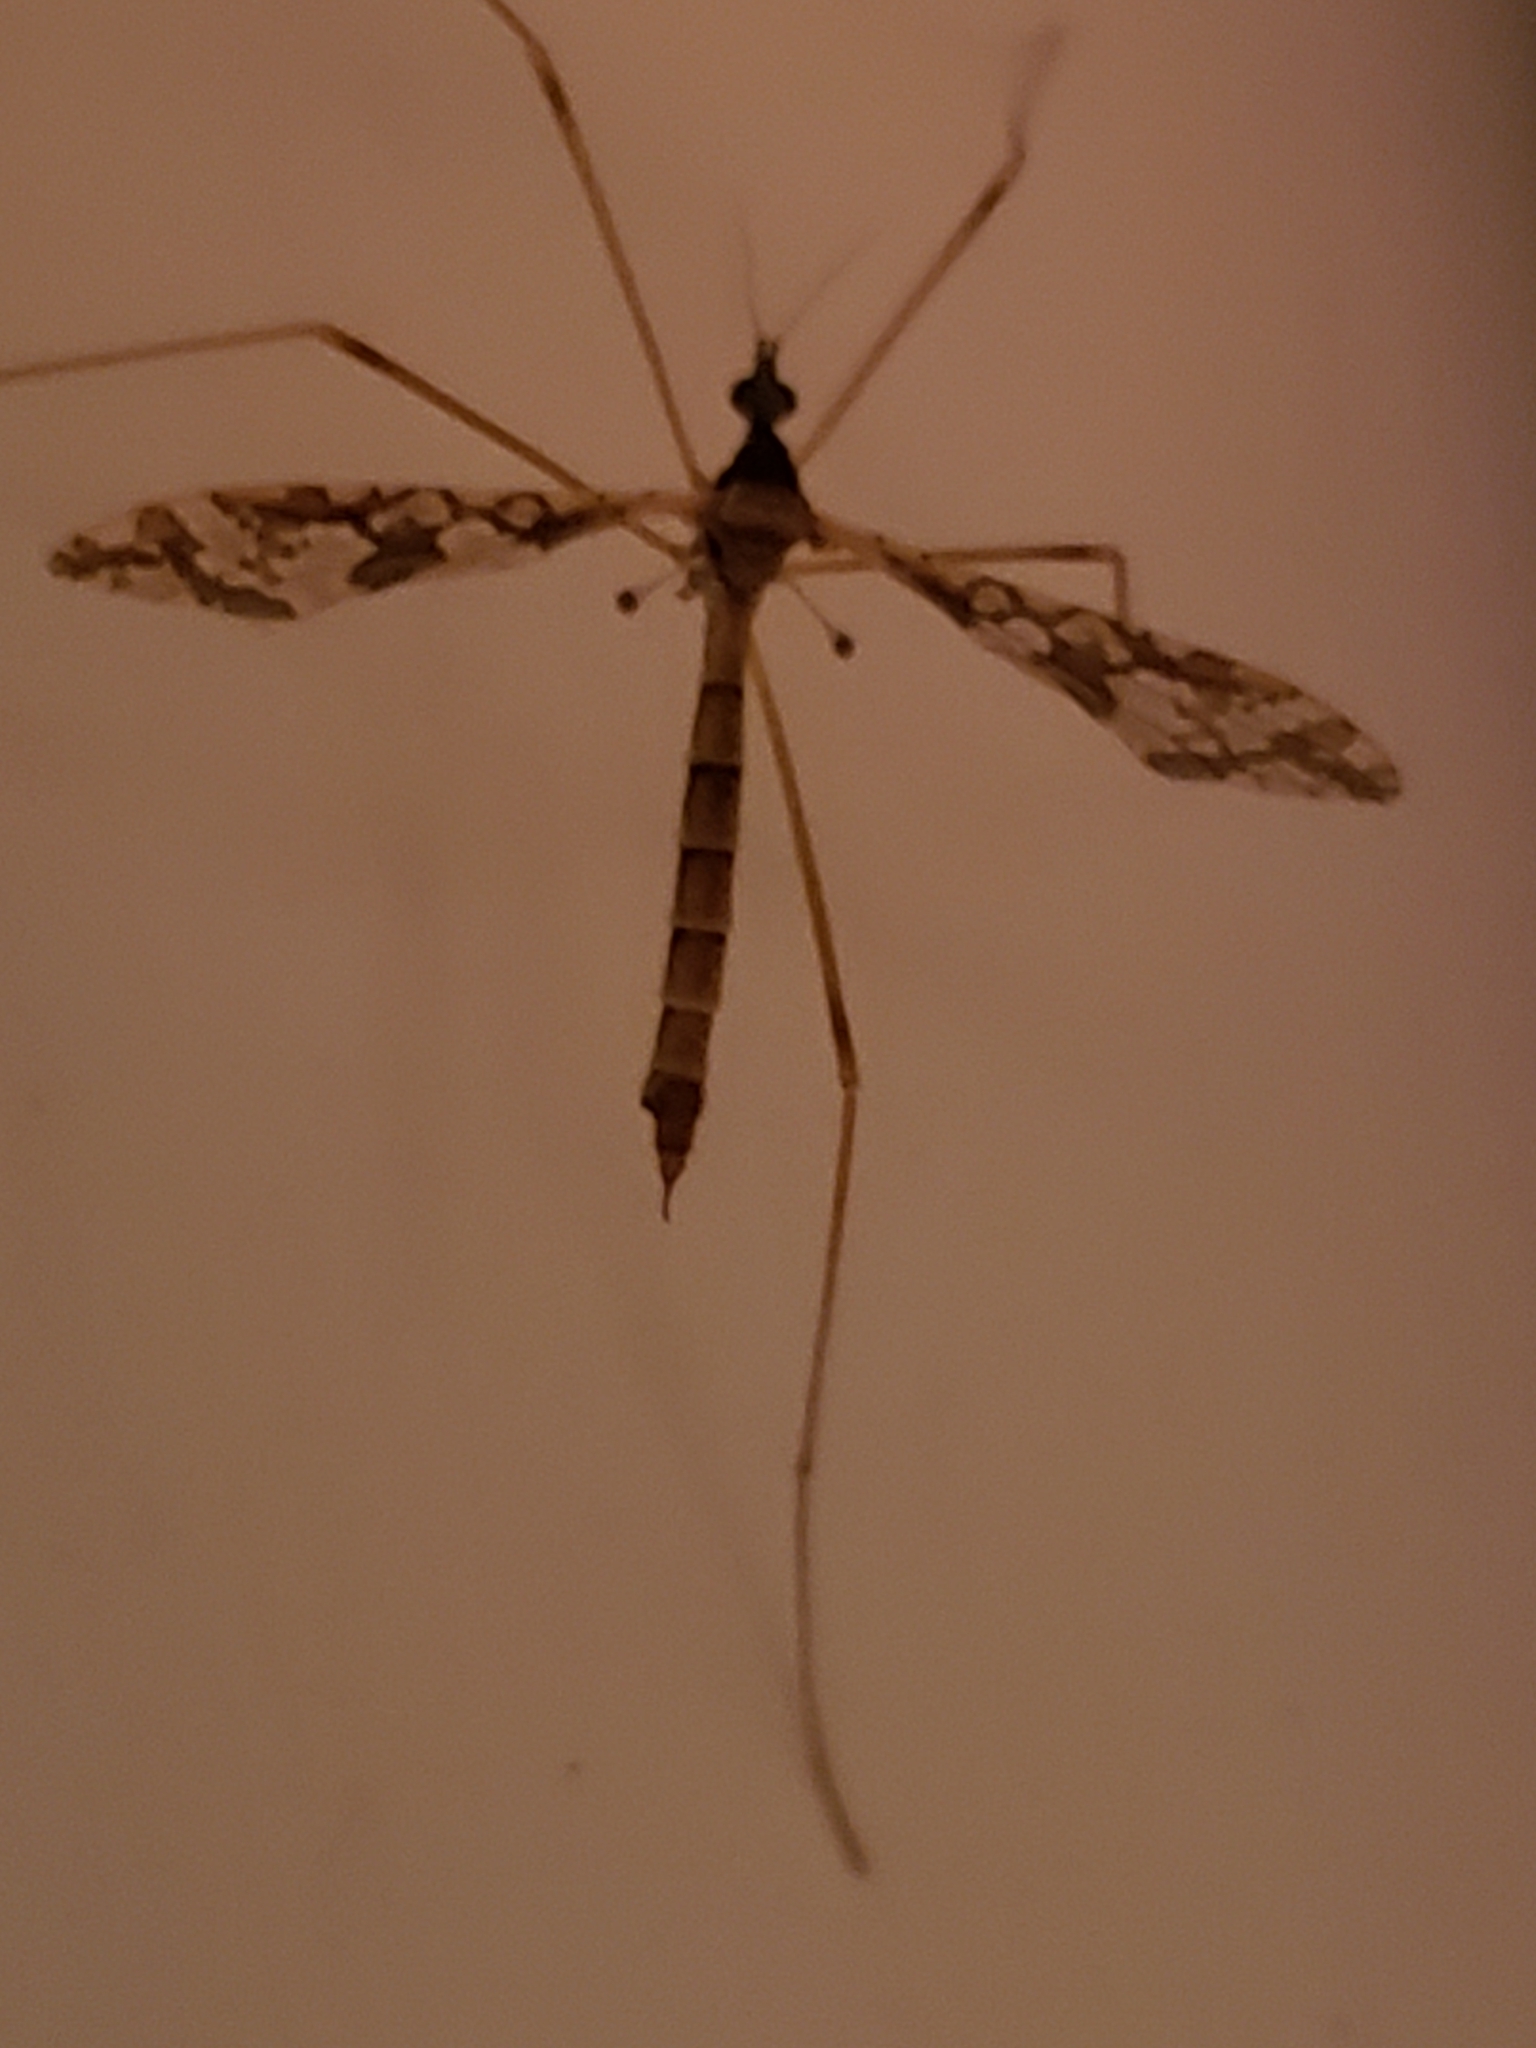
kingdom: Animalia
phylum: Arthropoda
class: Insecta
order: Diptera
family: Limoniidae
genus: Epiphragma
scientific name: Epiphragma solatrix
